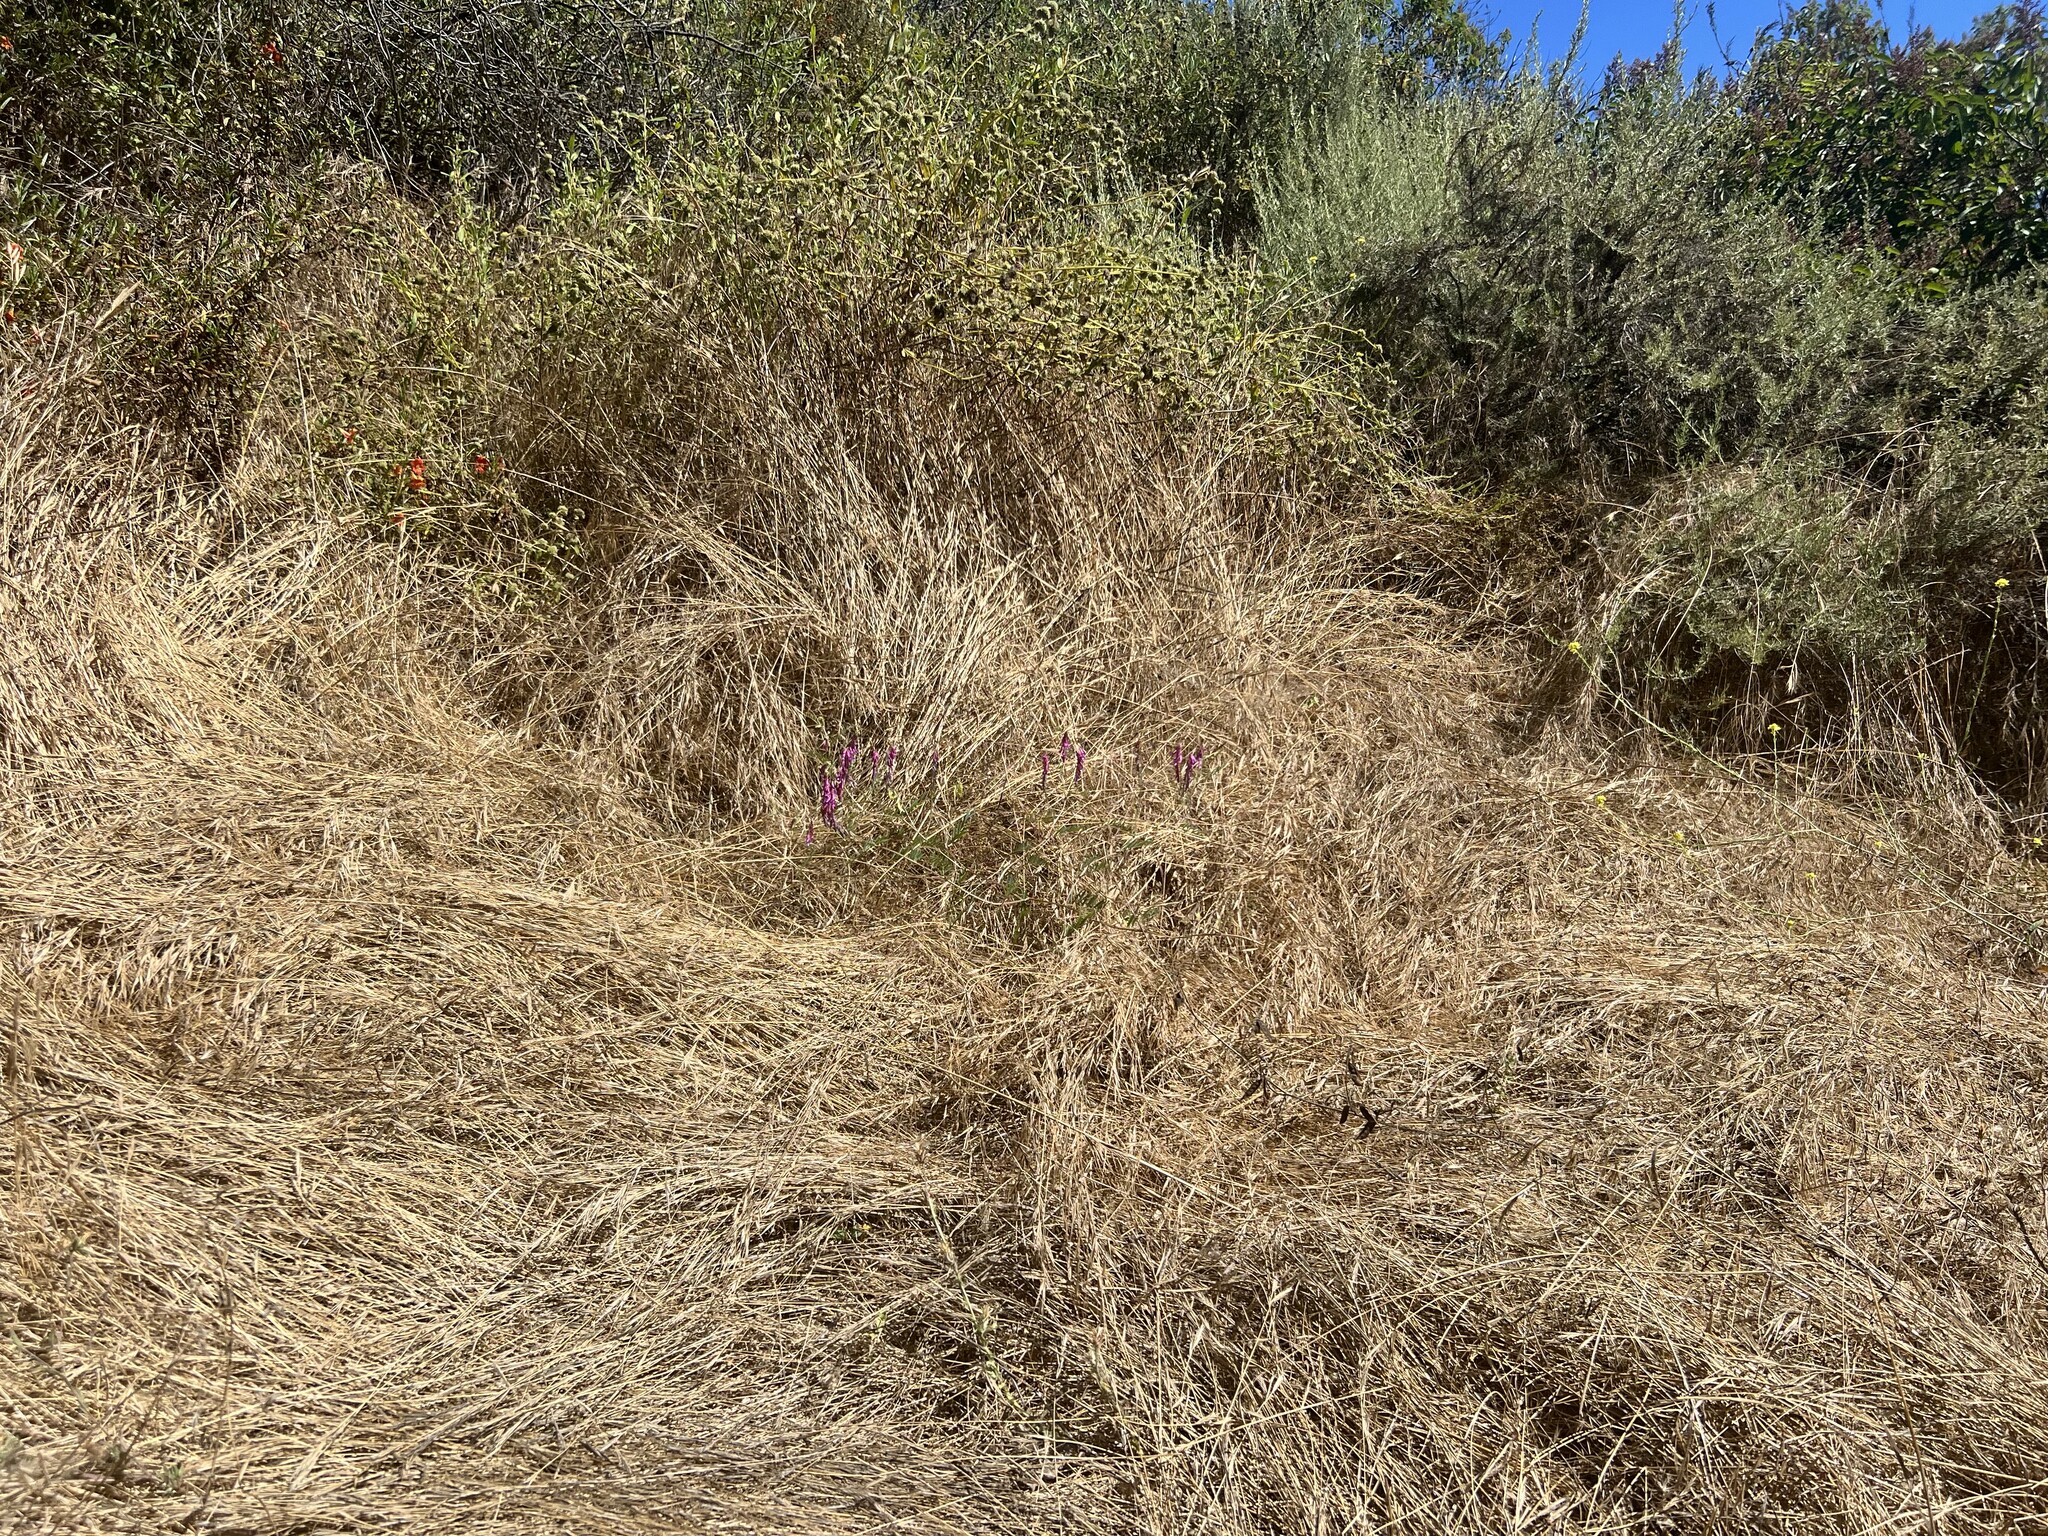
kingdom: Plantae
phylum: Tracheophyta
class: Magnoliopsida
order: Fabales
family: Fabaceae
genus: Vicia
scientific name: Vicia villosa
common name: Fodder vetch
